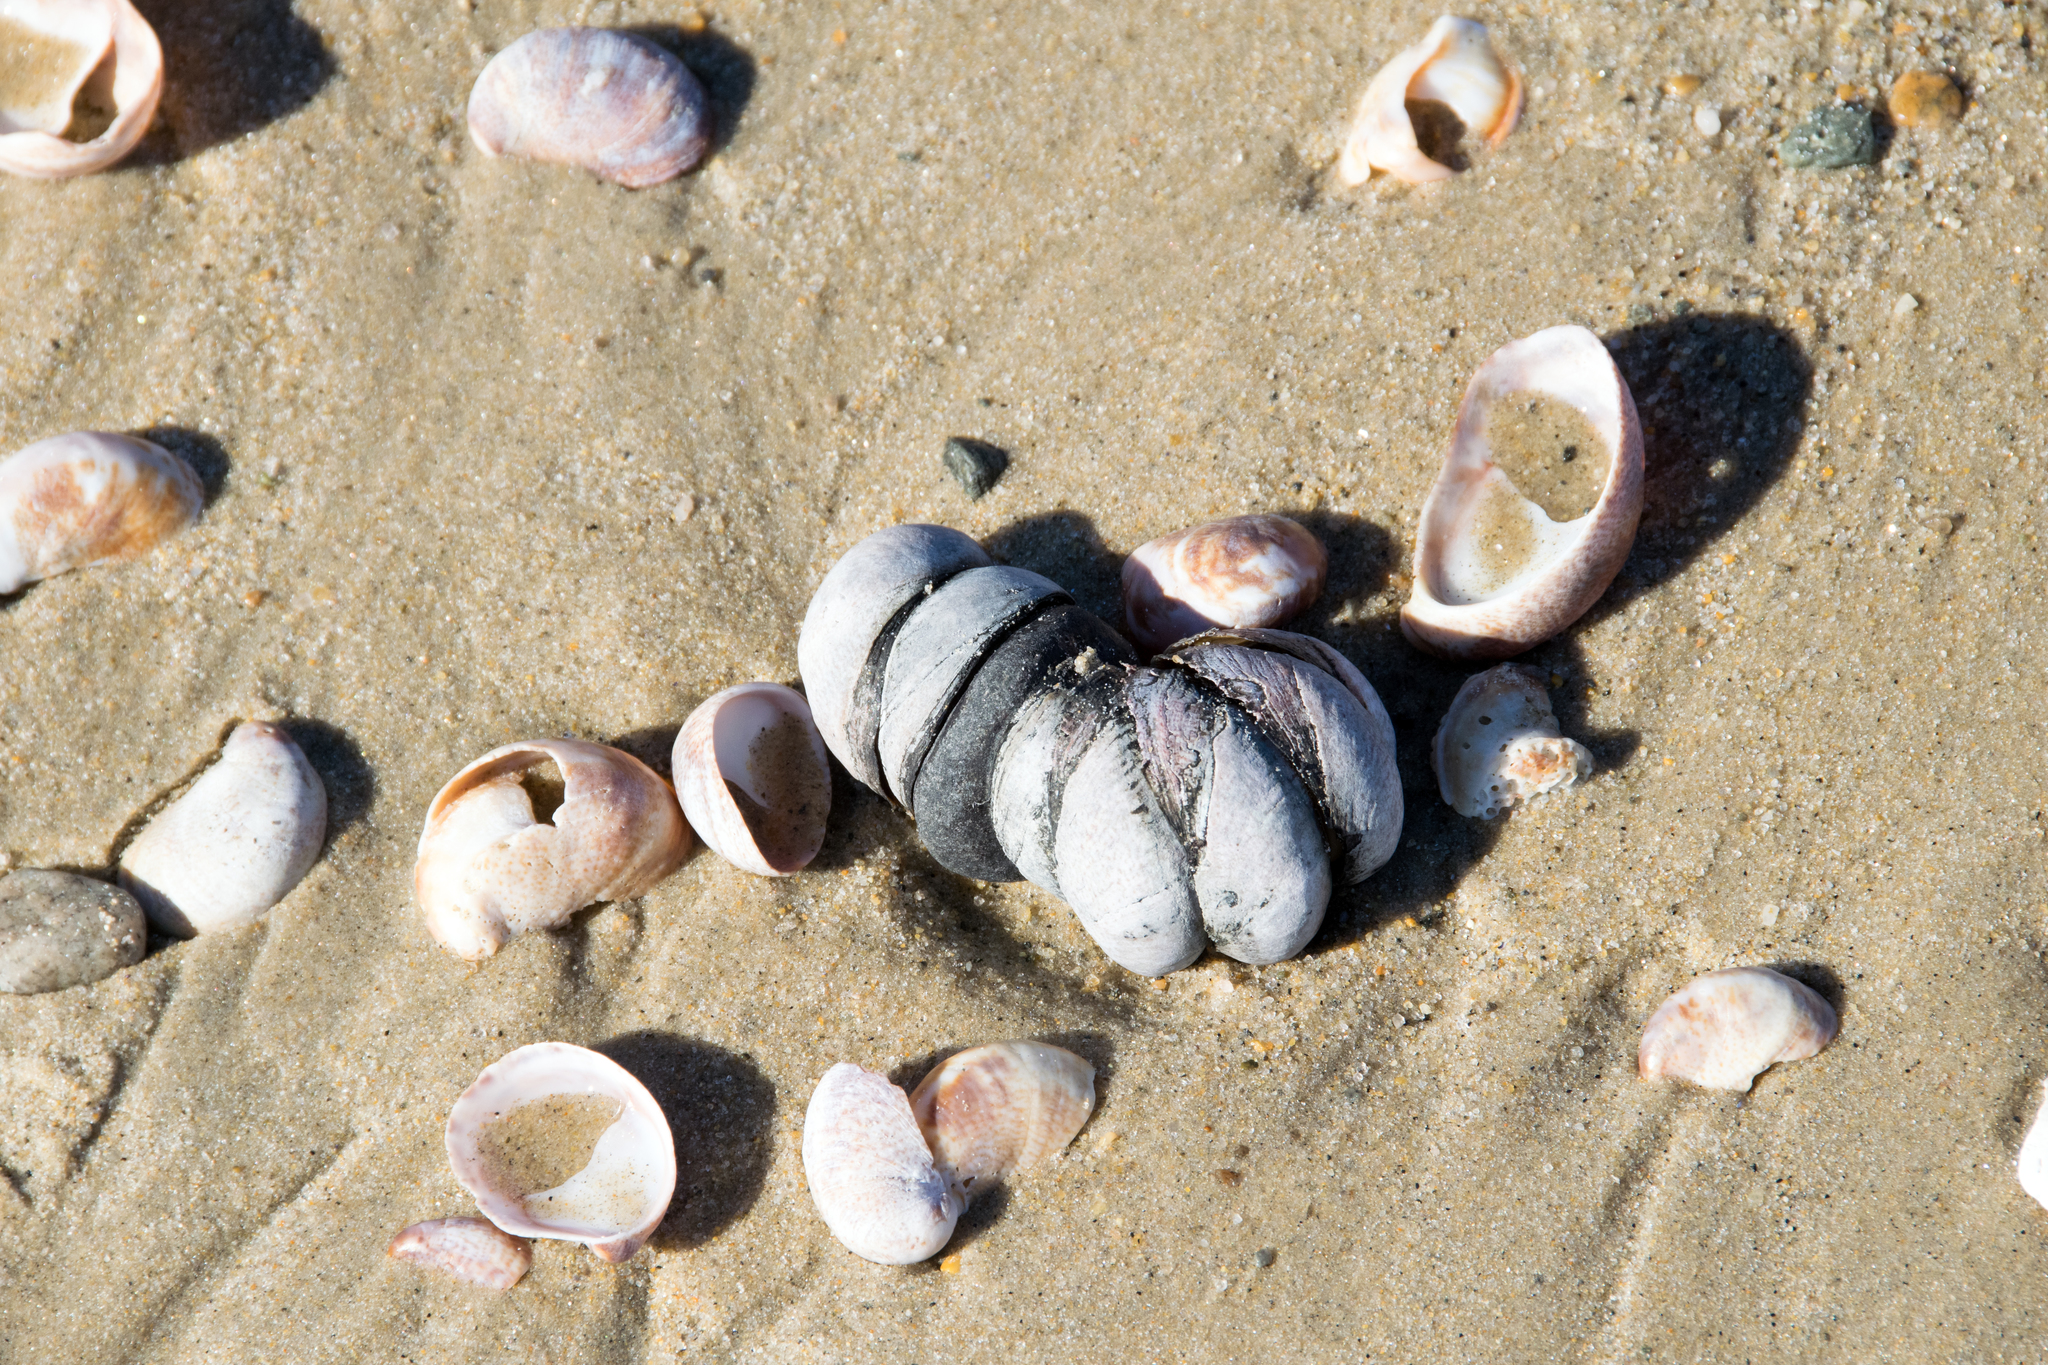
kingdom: Animalia
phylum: Mollusca
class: Gastropoda
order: Littorinimorpha
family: Calyptraeidae
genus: Crepidula
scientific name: Crepidula fornicata
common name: Slipper limpet
